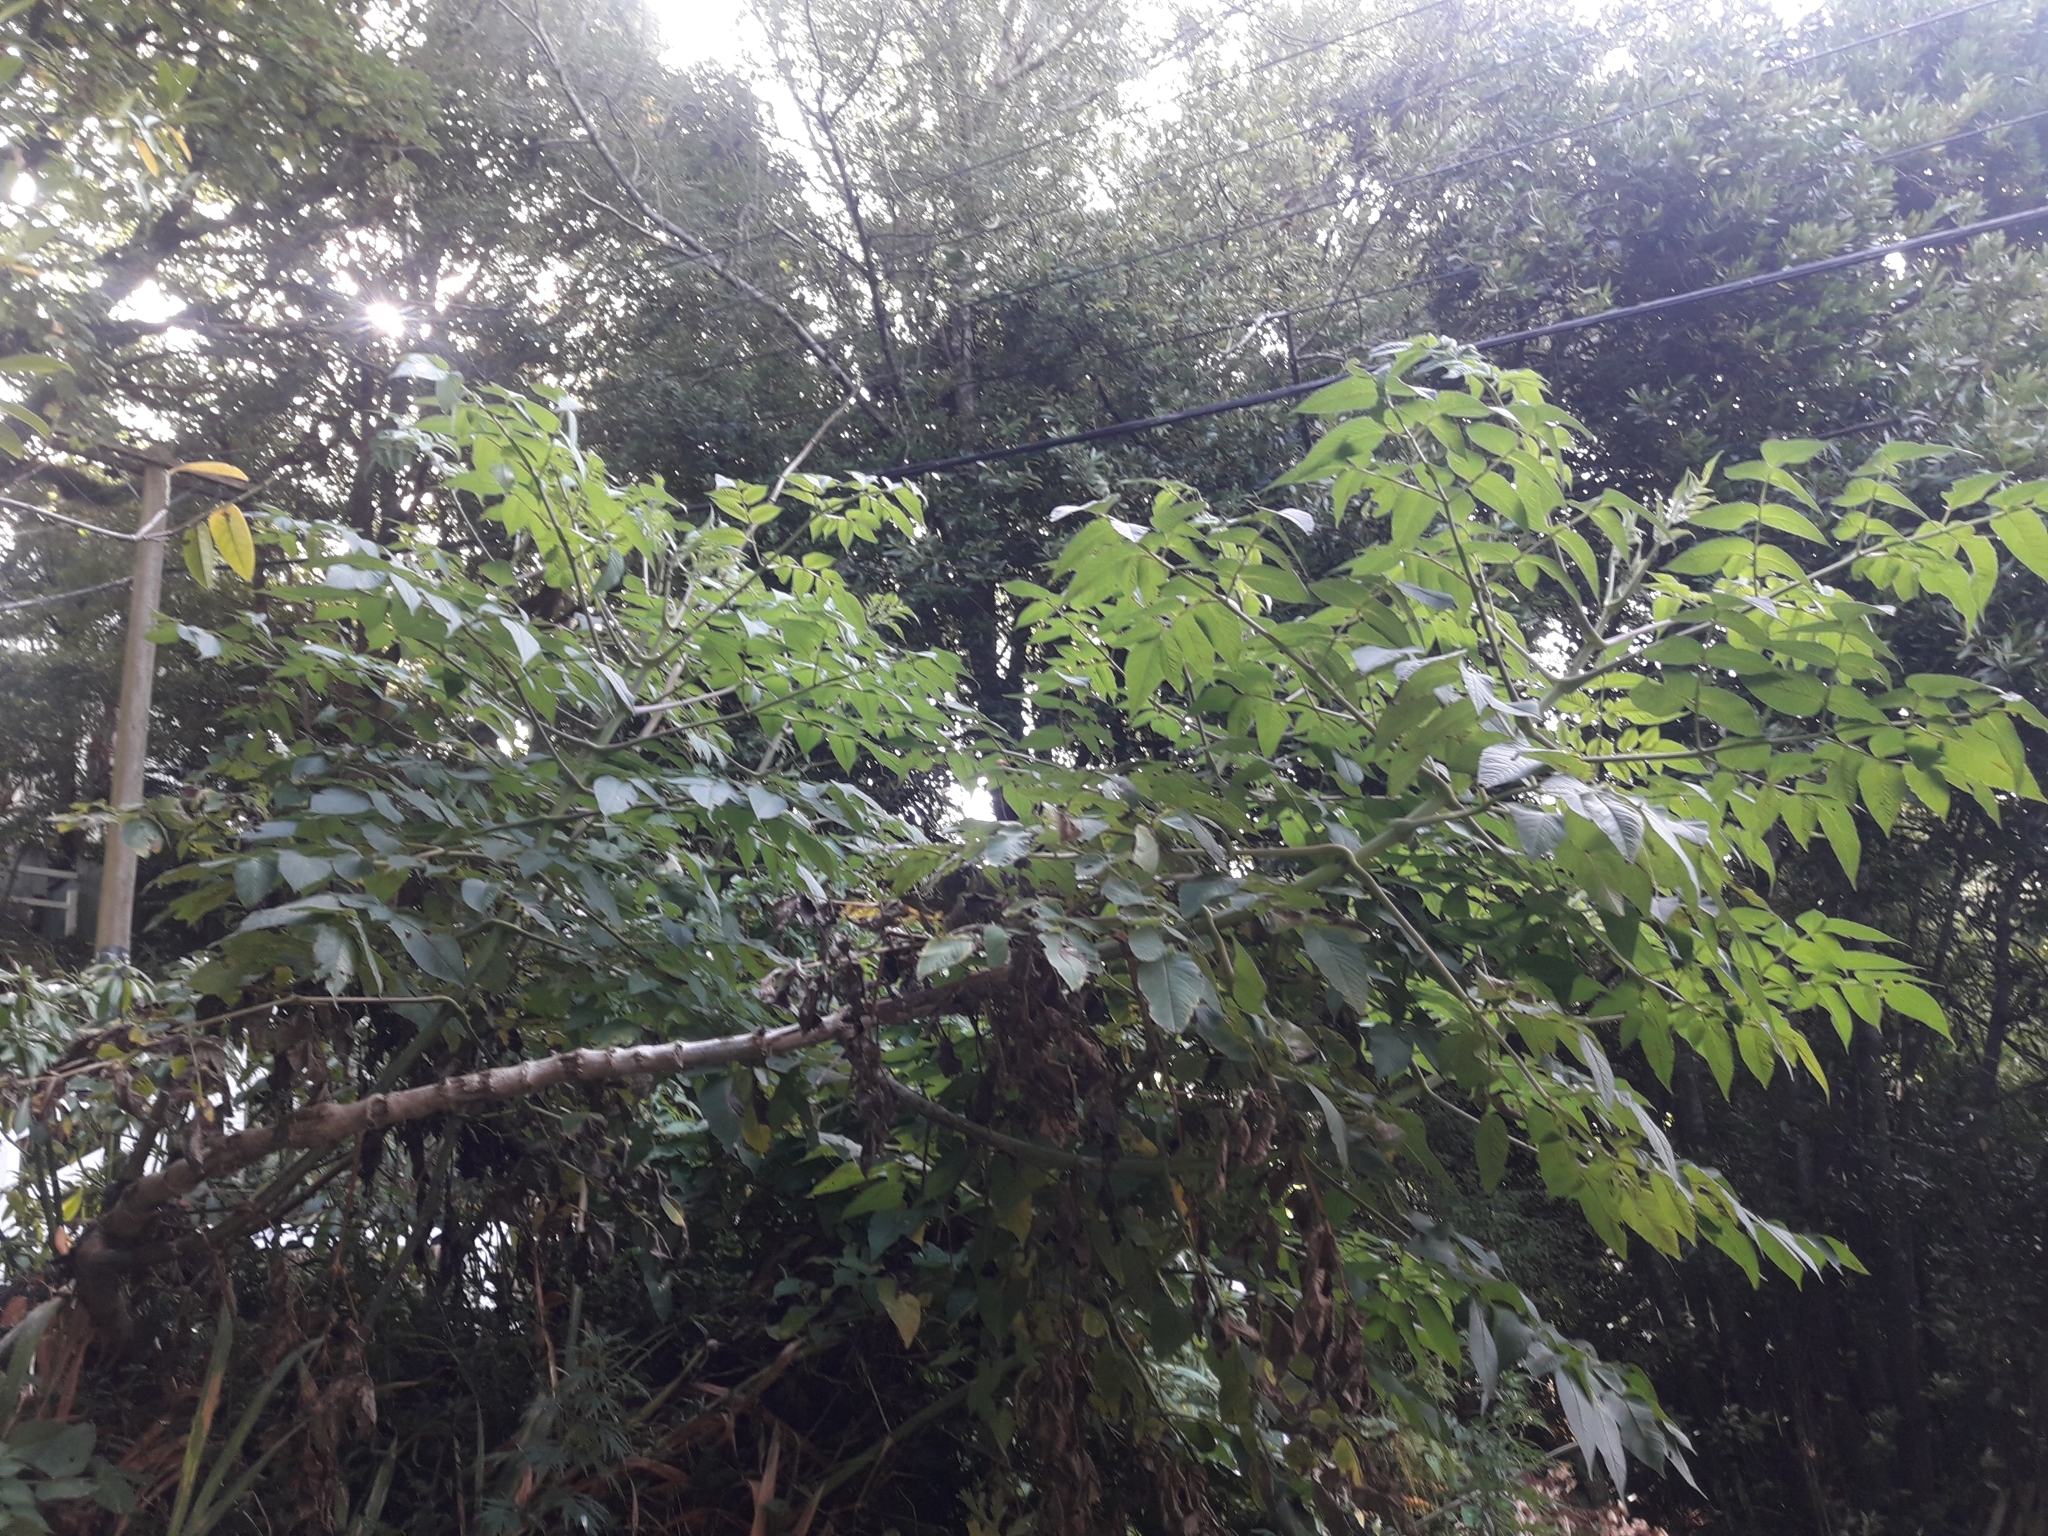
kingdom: Plantae
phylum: Tracheophyta
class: Magnoliopsida
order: Asterales
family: Asteraceae
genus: Dahlia
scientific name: Dahlia imperialis
